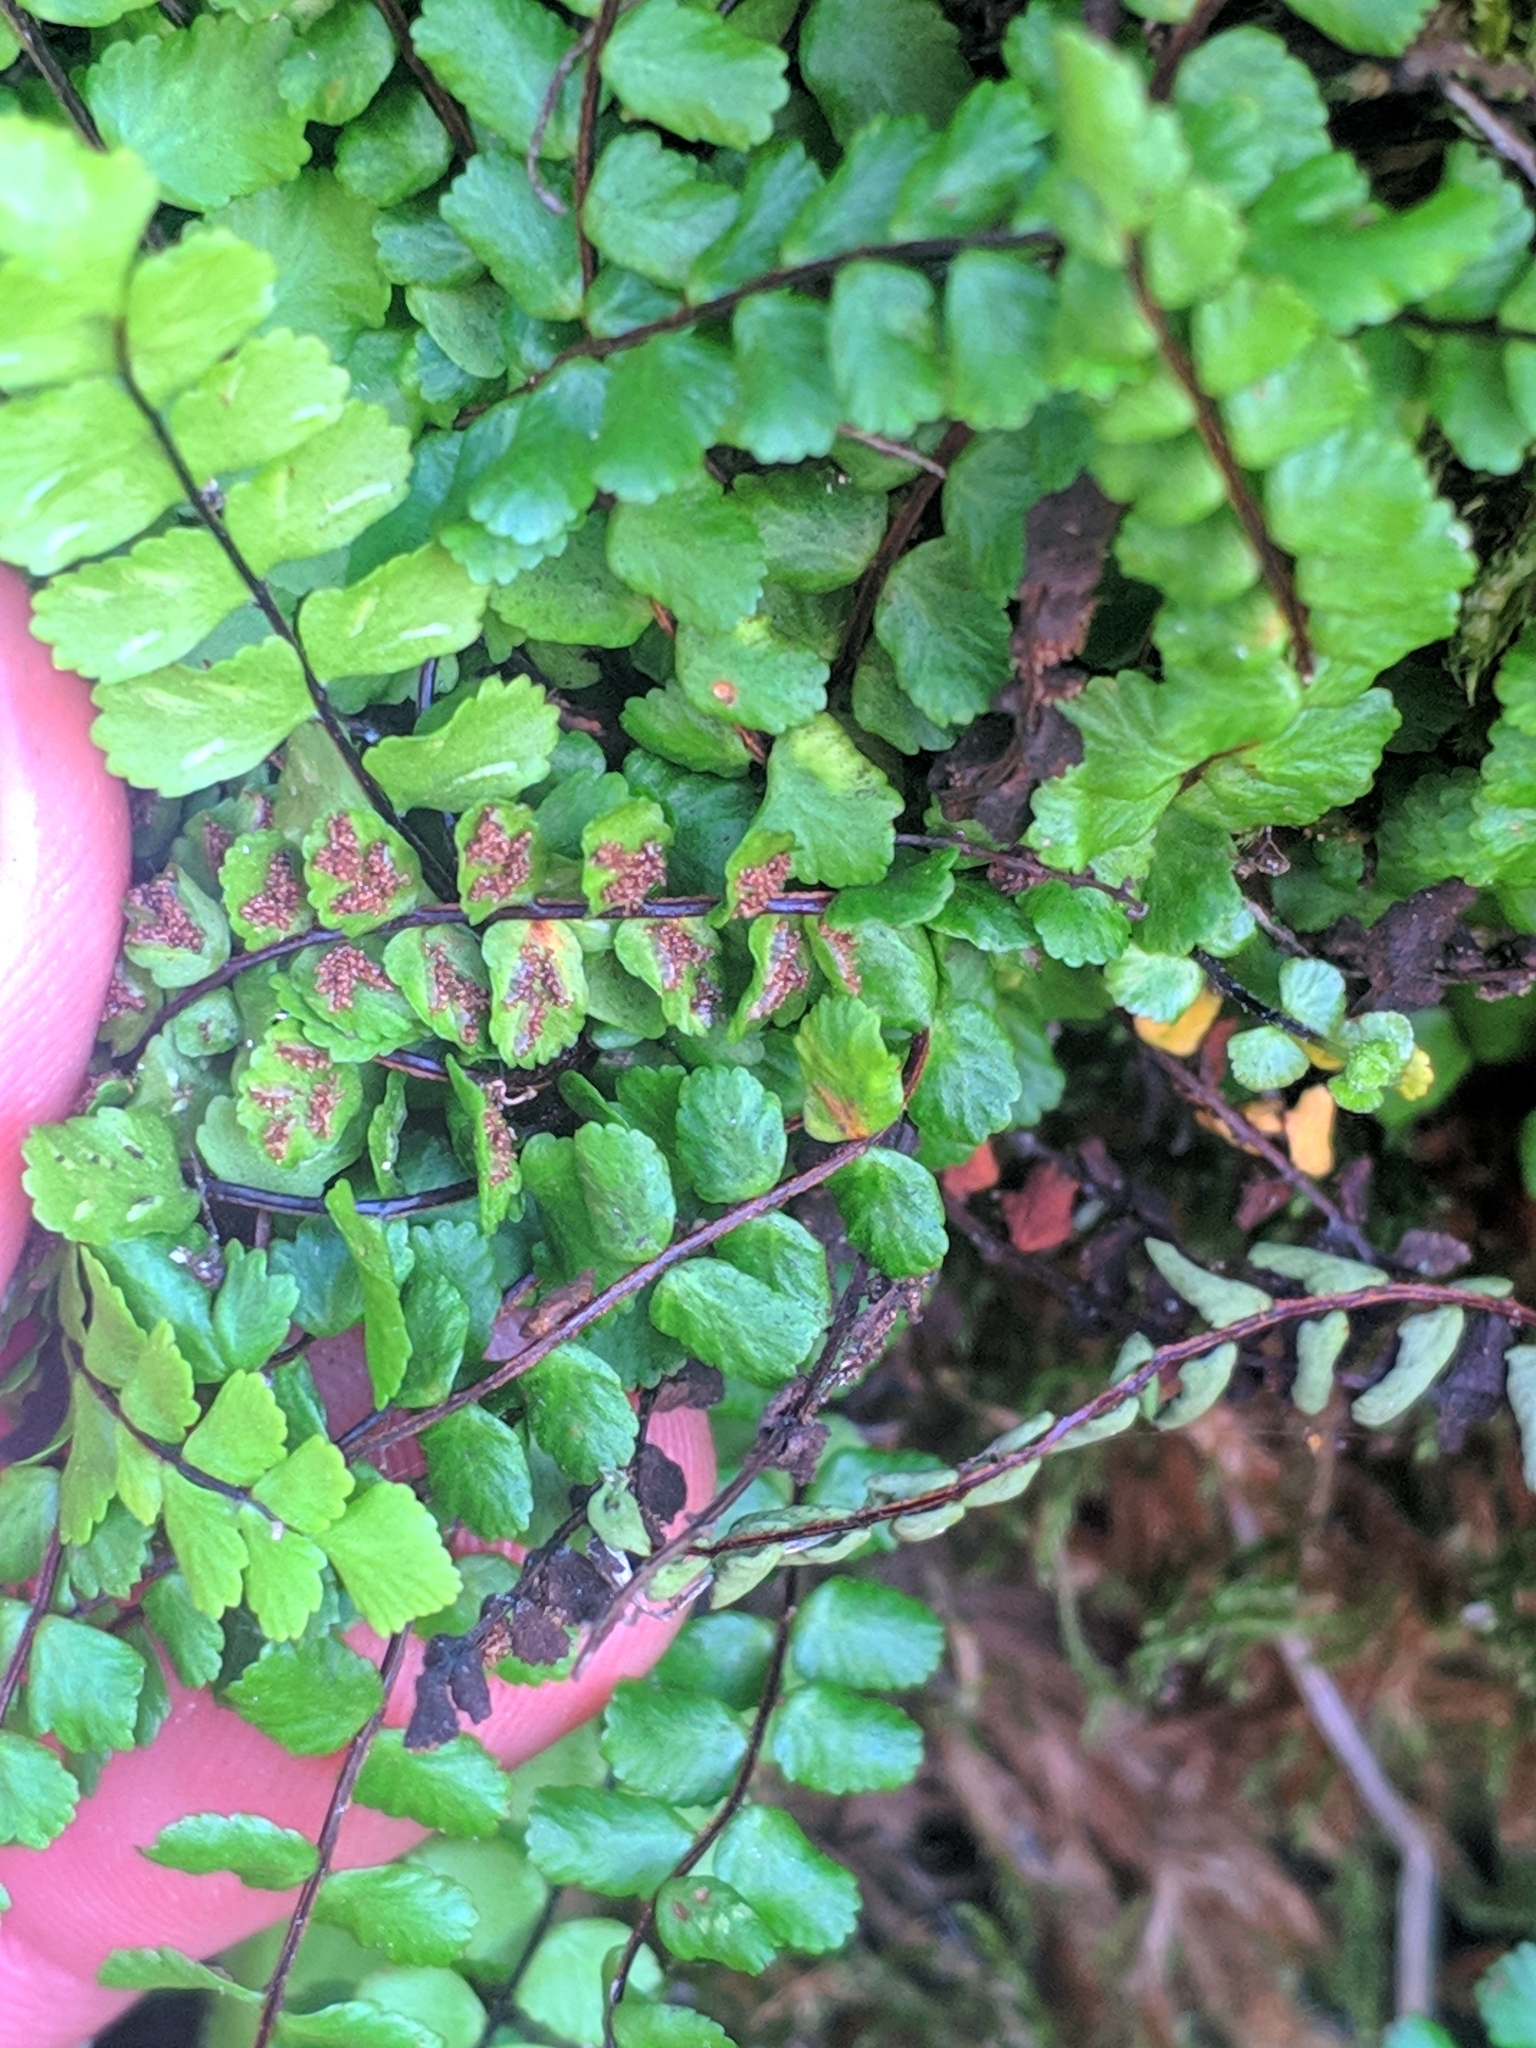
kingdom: Plantae
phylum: Tracheophyta
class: Polypodiopsida
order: Polypodiales
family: Aspleniaceae
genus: Asplenium
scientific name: Asplenium trichomanes
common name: Maidenhair spleenwort
